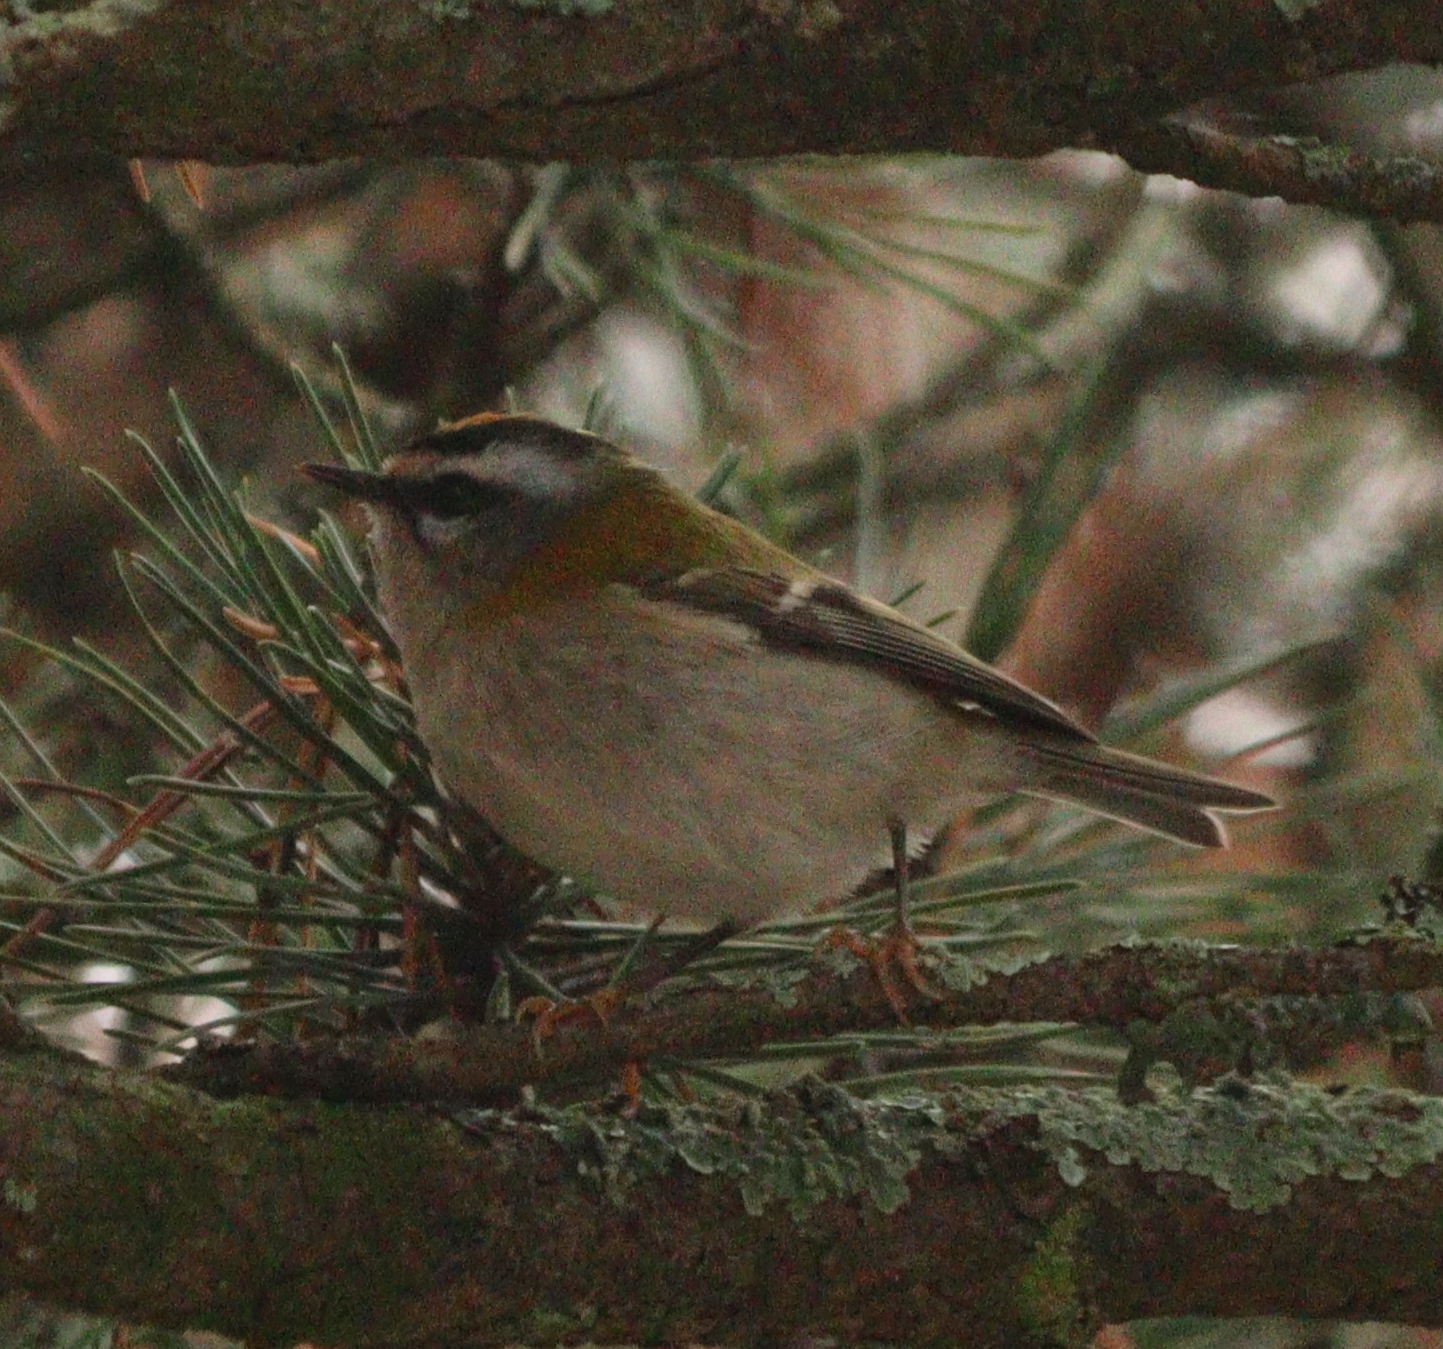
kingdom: Animalia
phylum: Chordata
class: Aves
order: Passeriformes
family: Regulidae
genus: Regulus
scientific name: Regulus ignicapilla
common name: Firecrest
